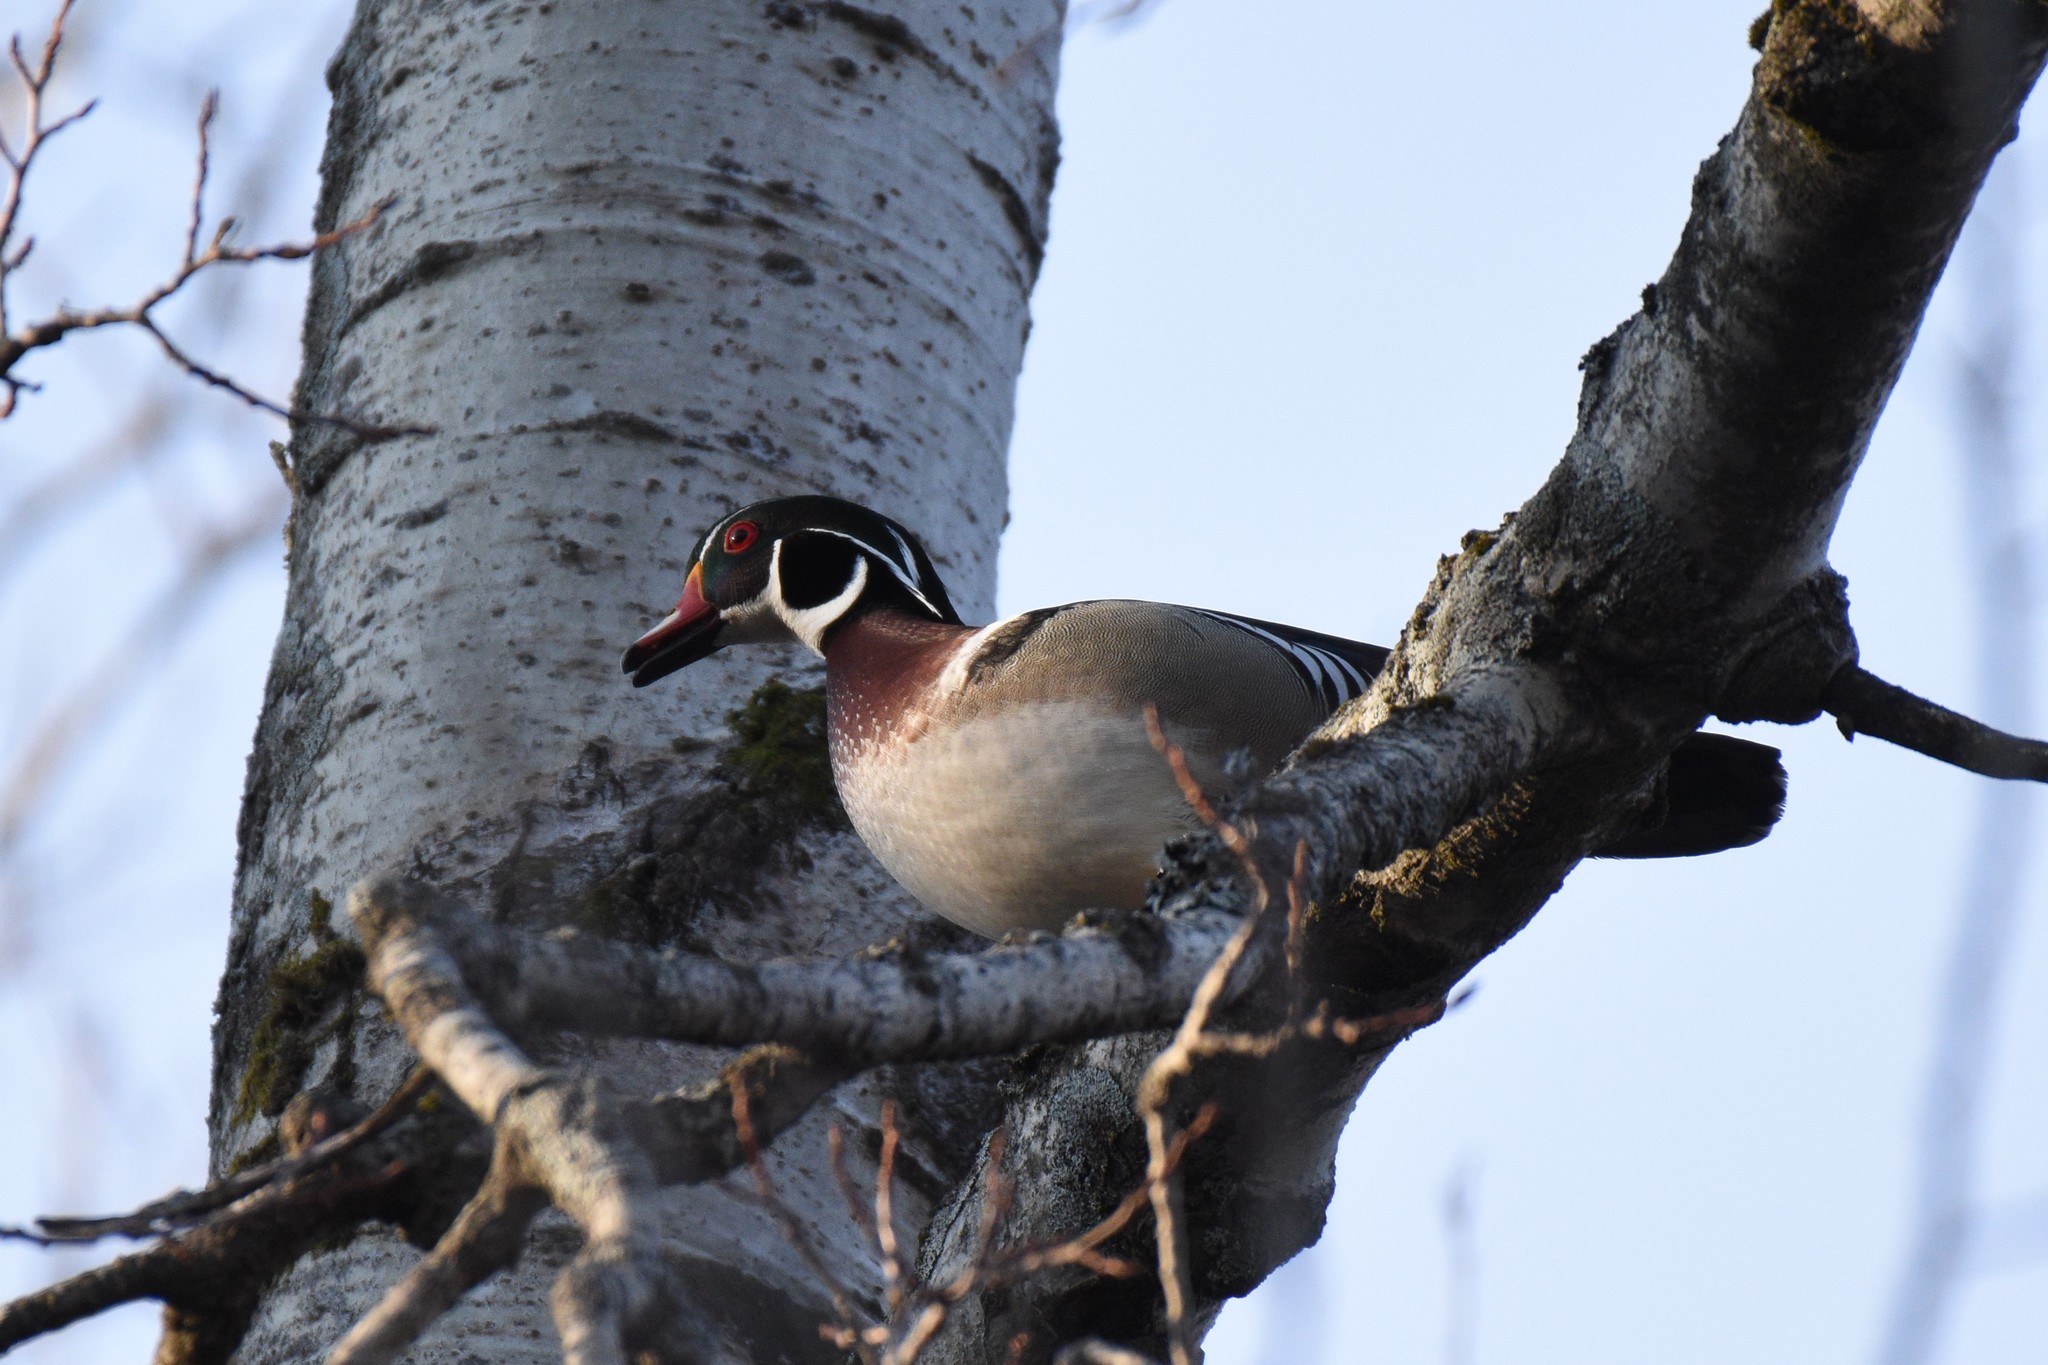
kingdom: Animalia
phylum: Chordata
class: Aves
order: Anseriformes
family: Anatidae
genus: Aix
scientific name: Aix sponsa
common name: Wood duck
